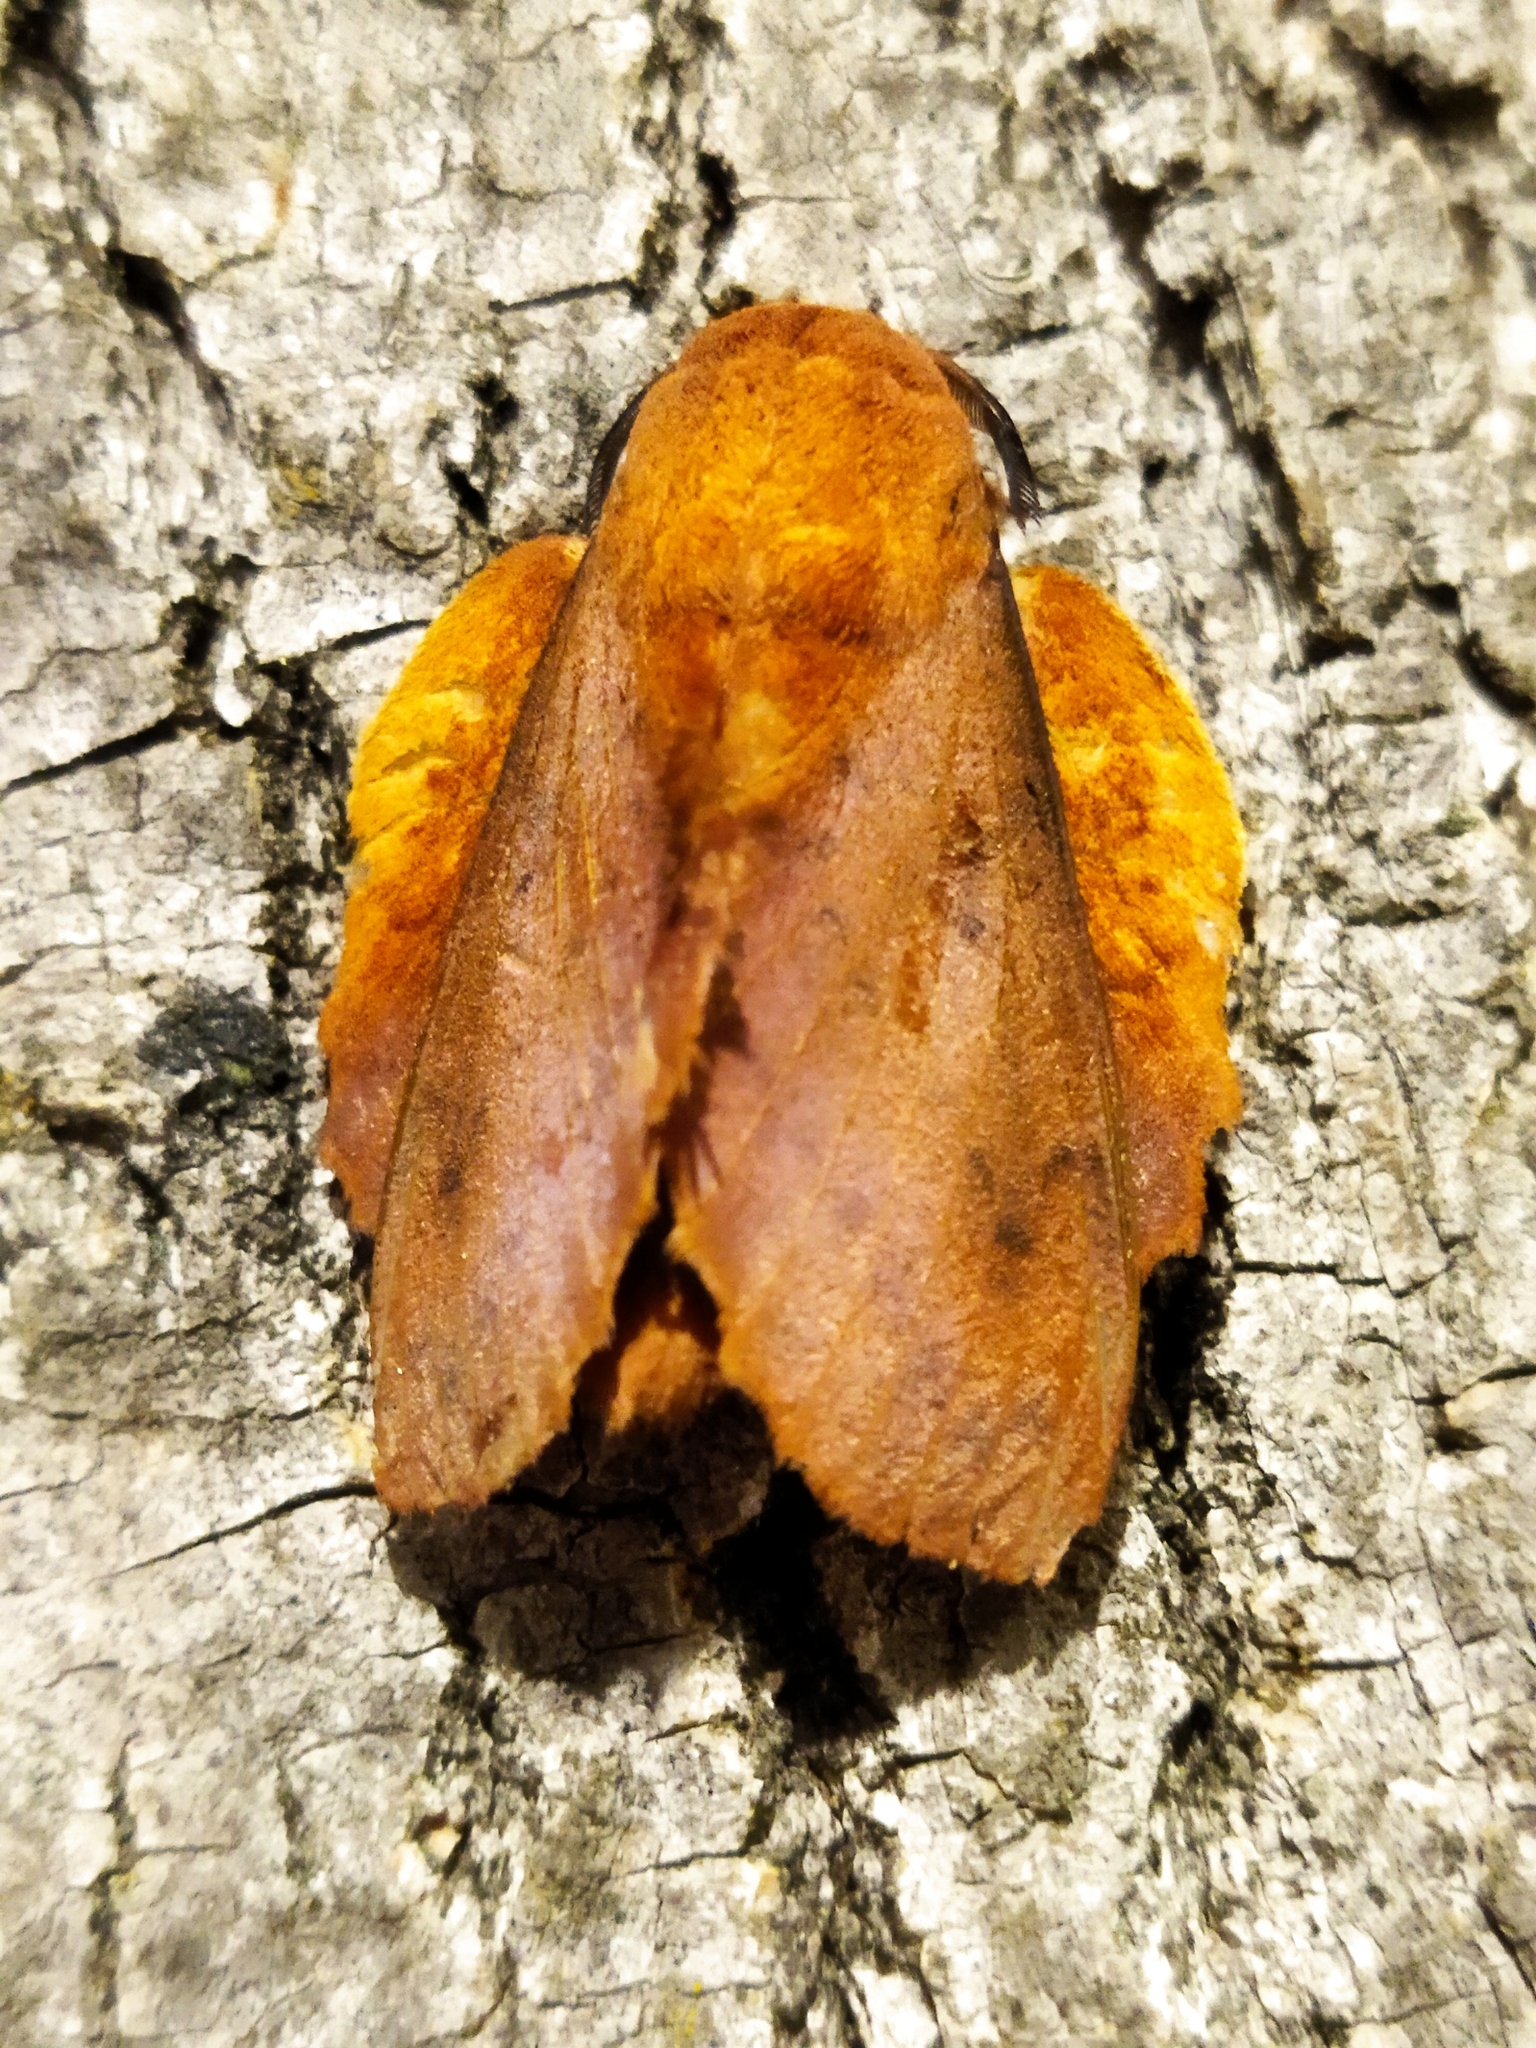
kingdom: Animalia
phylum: Arthropoda
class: Insecta
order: Lepidoptera
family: Lasiocampidae
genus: Gastropacha
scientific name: Gastropacha quercifolia
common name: Lappet
